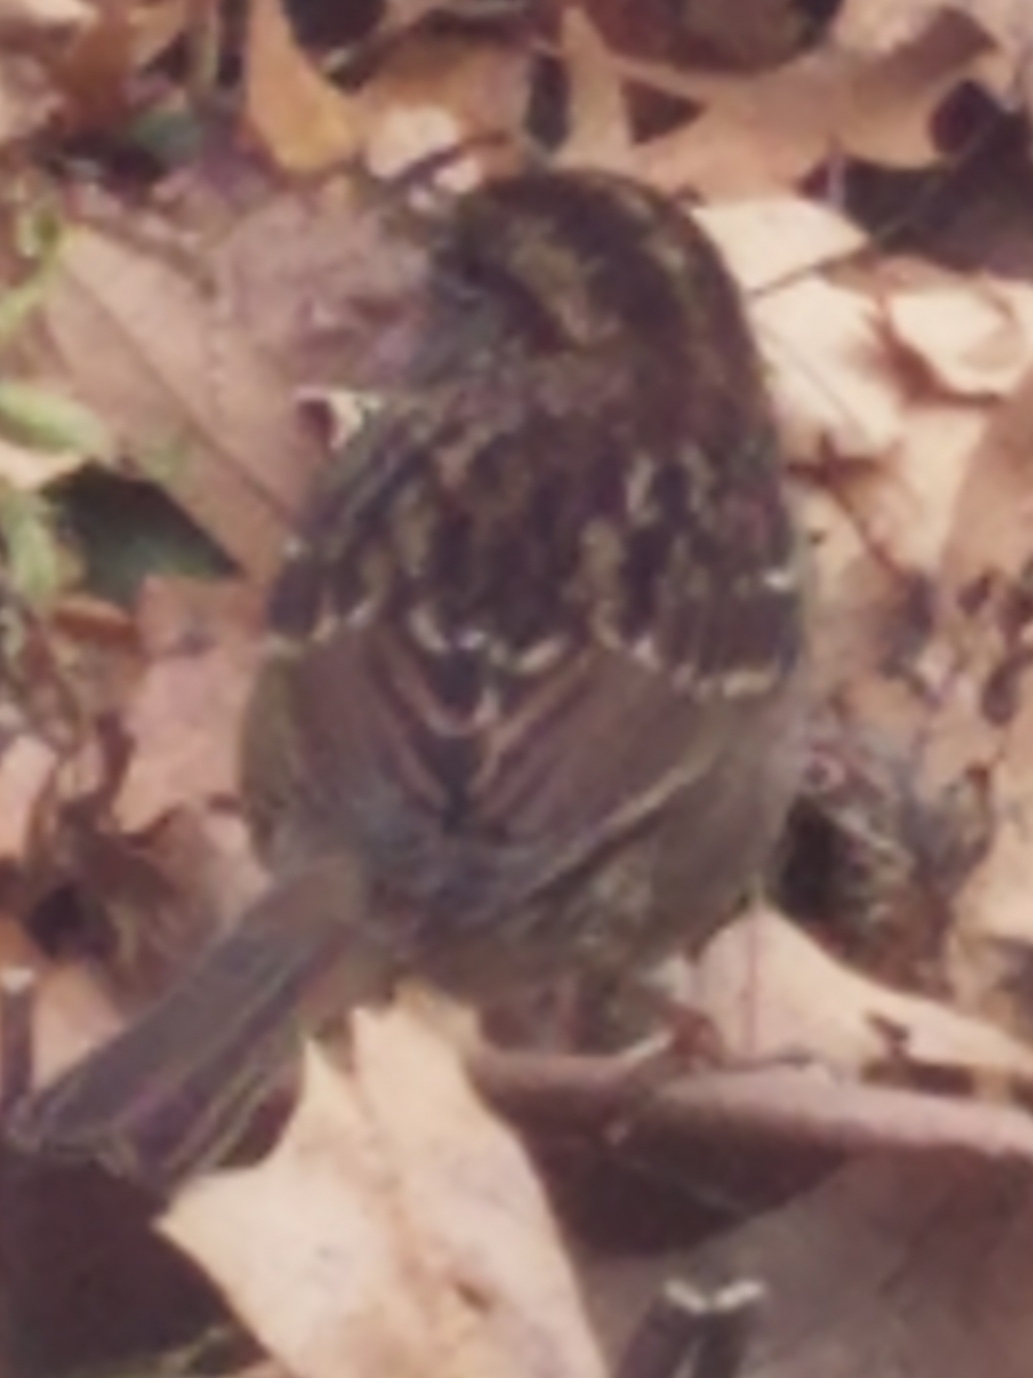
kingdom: Animalia
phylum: Chordata
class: Aves
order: Passeriformes
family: Passerellidae
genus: Zonotrichia
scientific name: Zonotrichia albicollis
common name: White-throated sparrow
